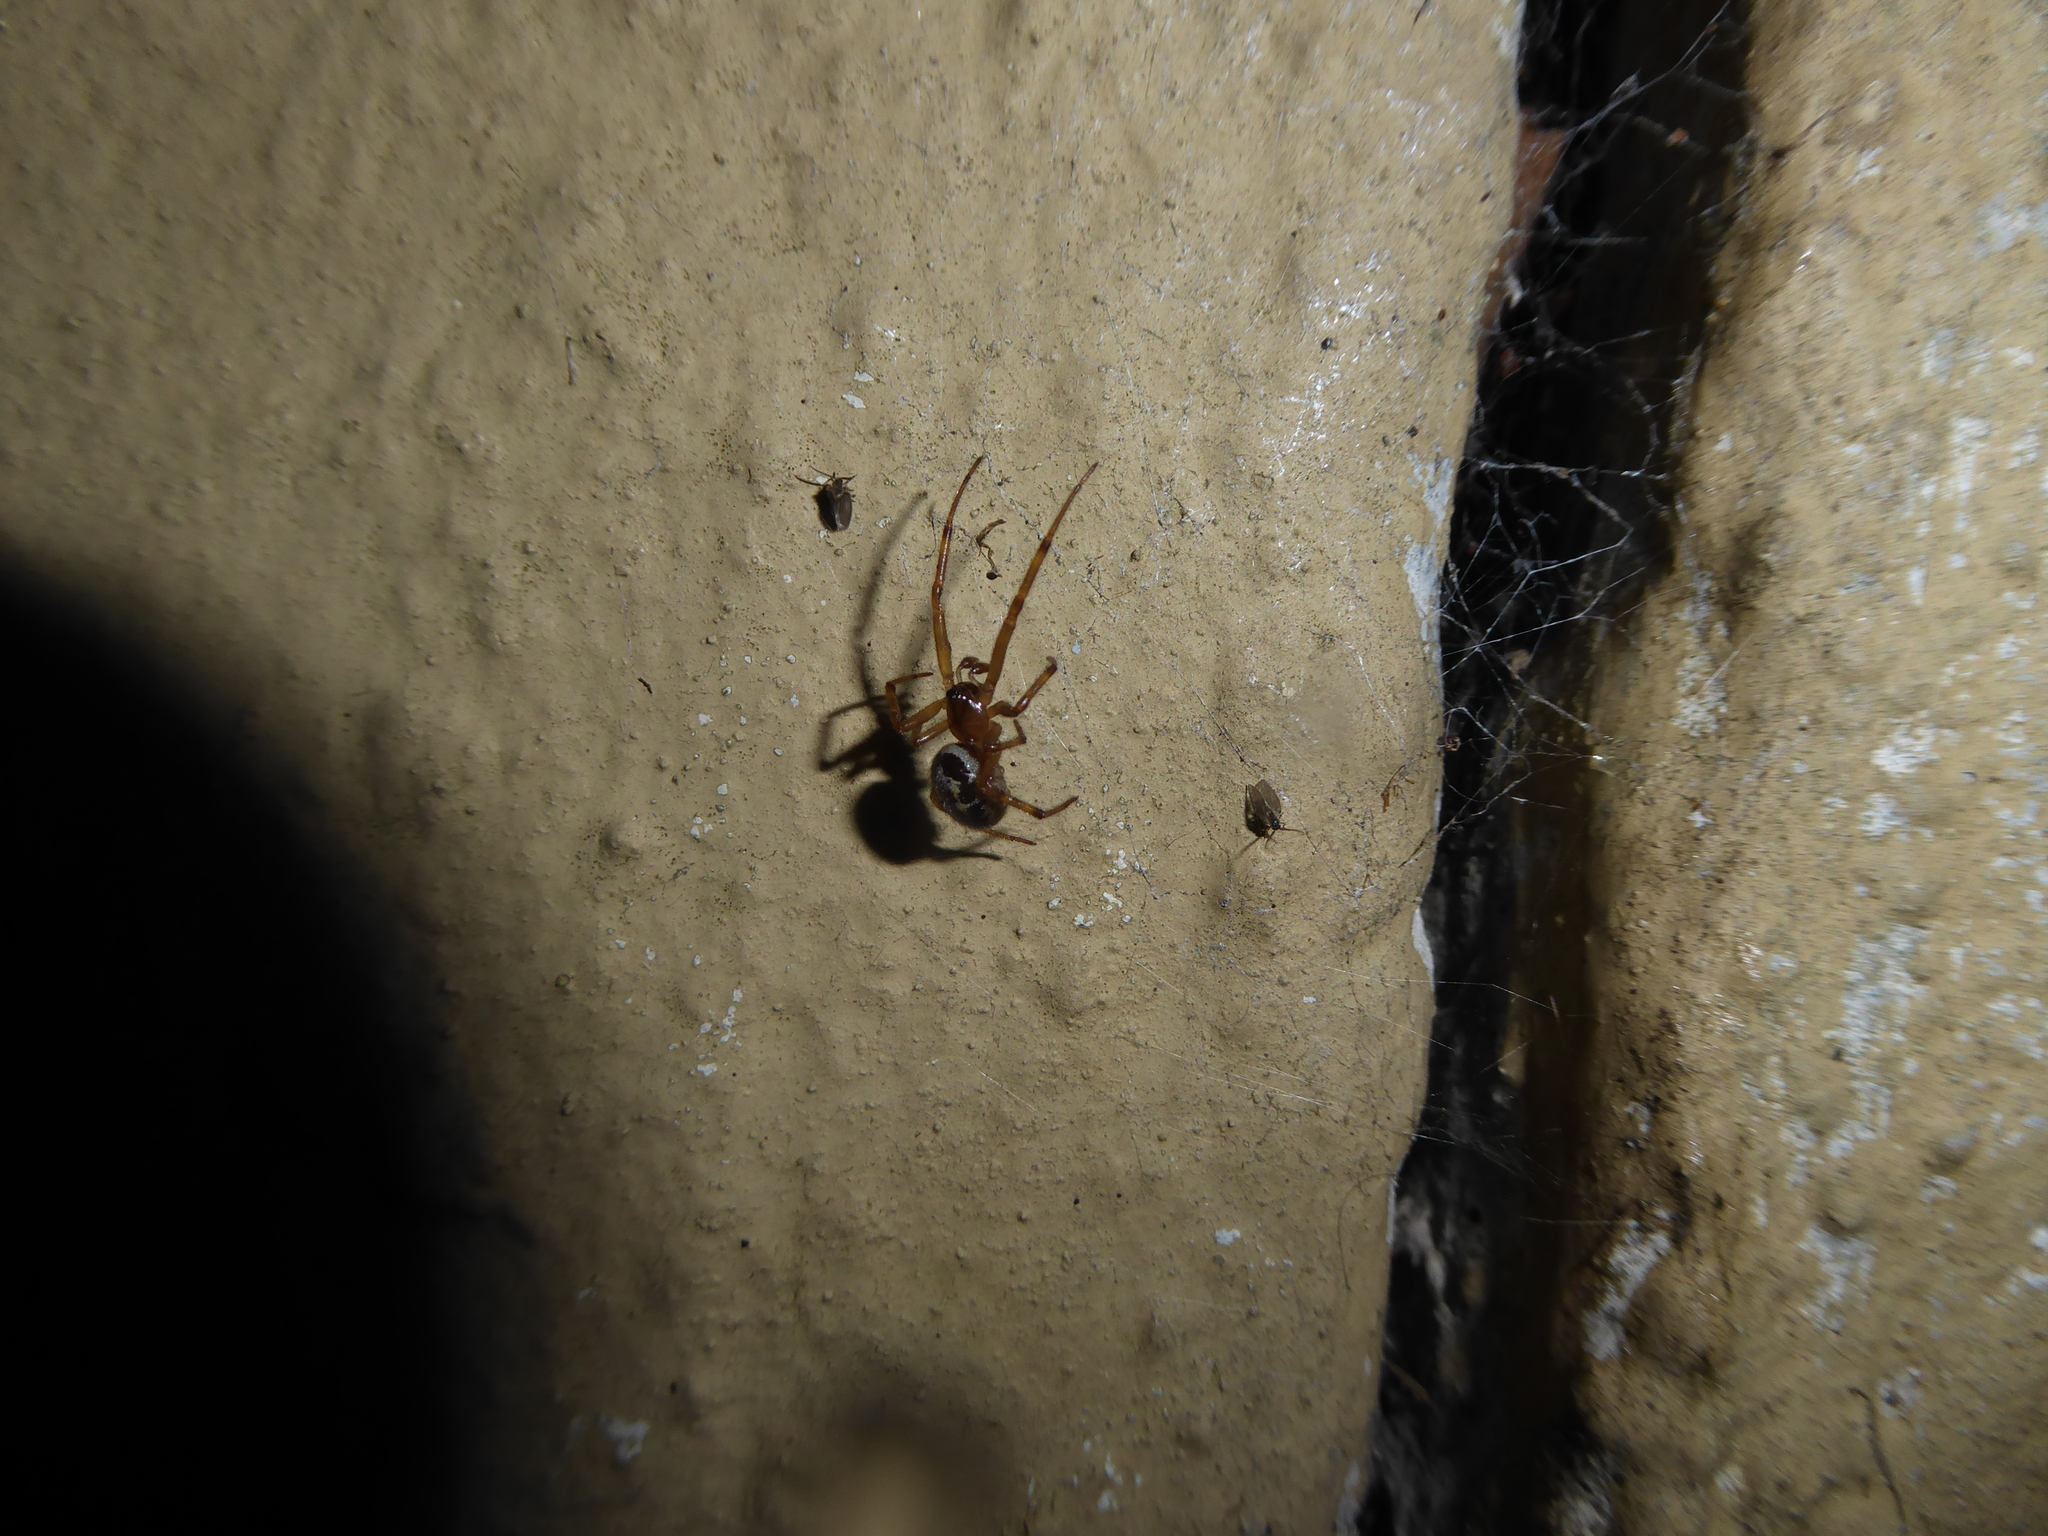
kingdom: Animalia
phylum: Arthropoda
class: Arachnida
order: Araneae
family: Theridiidae
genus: Steatoda
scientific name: Steatoda nobilis
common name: Cobweb weaver
